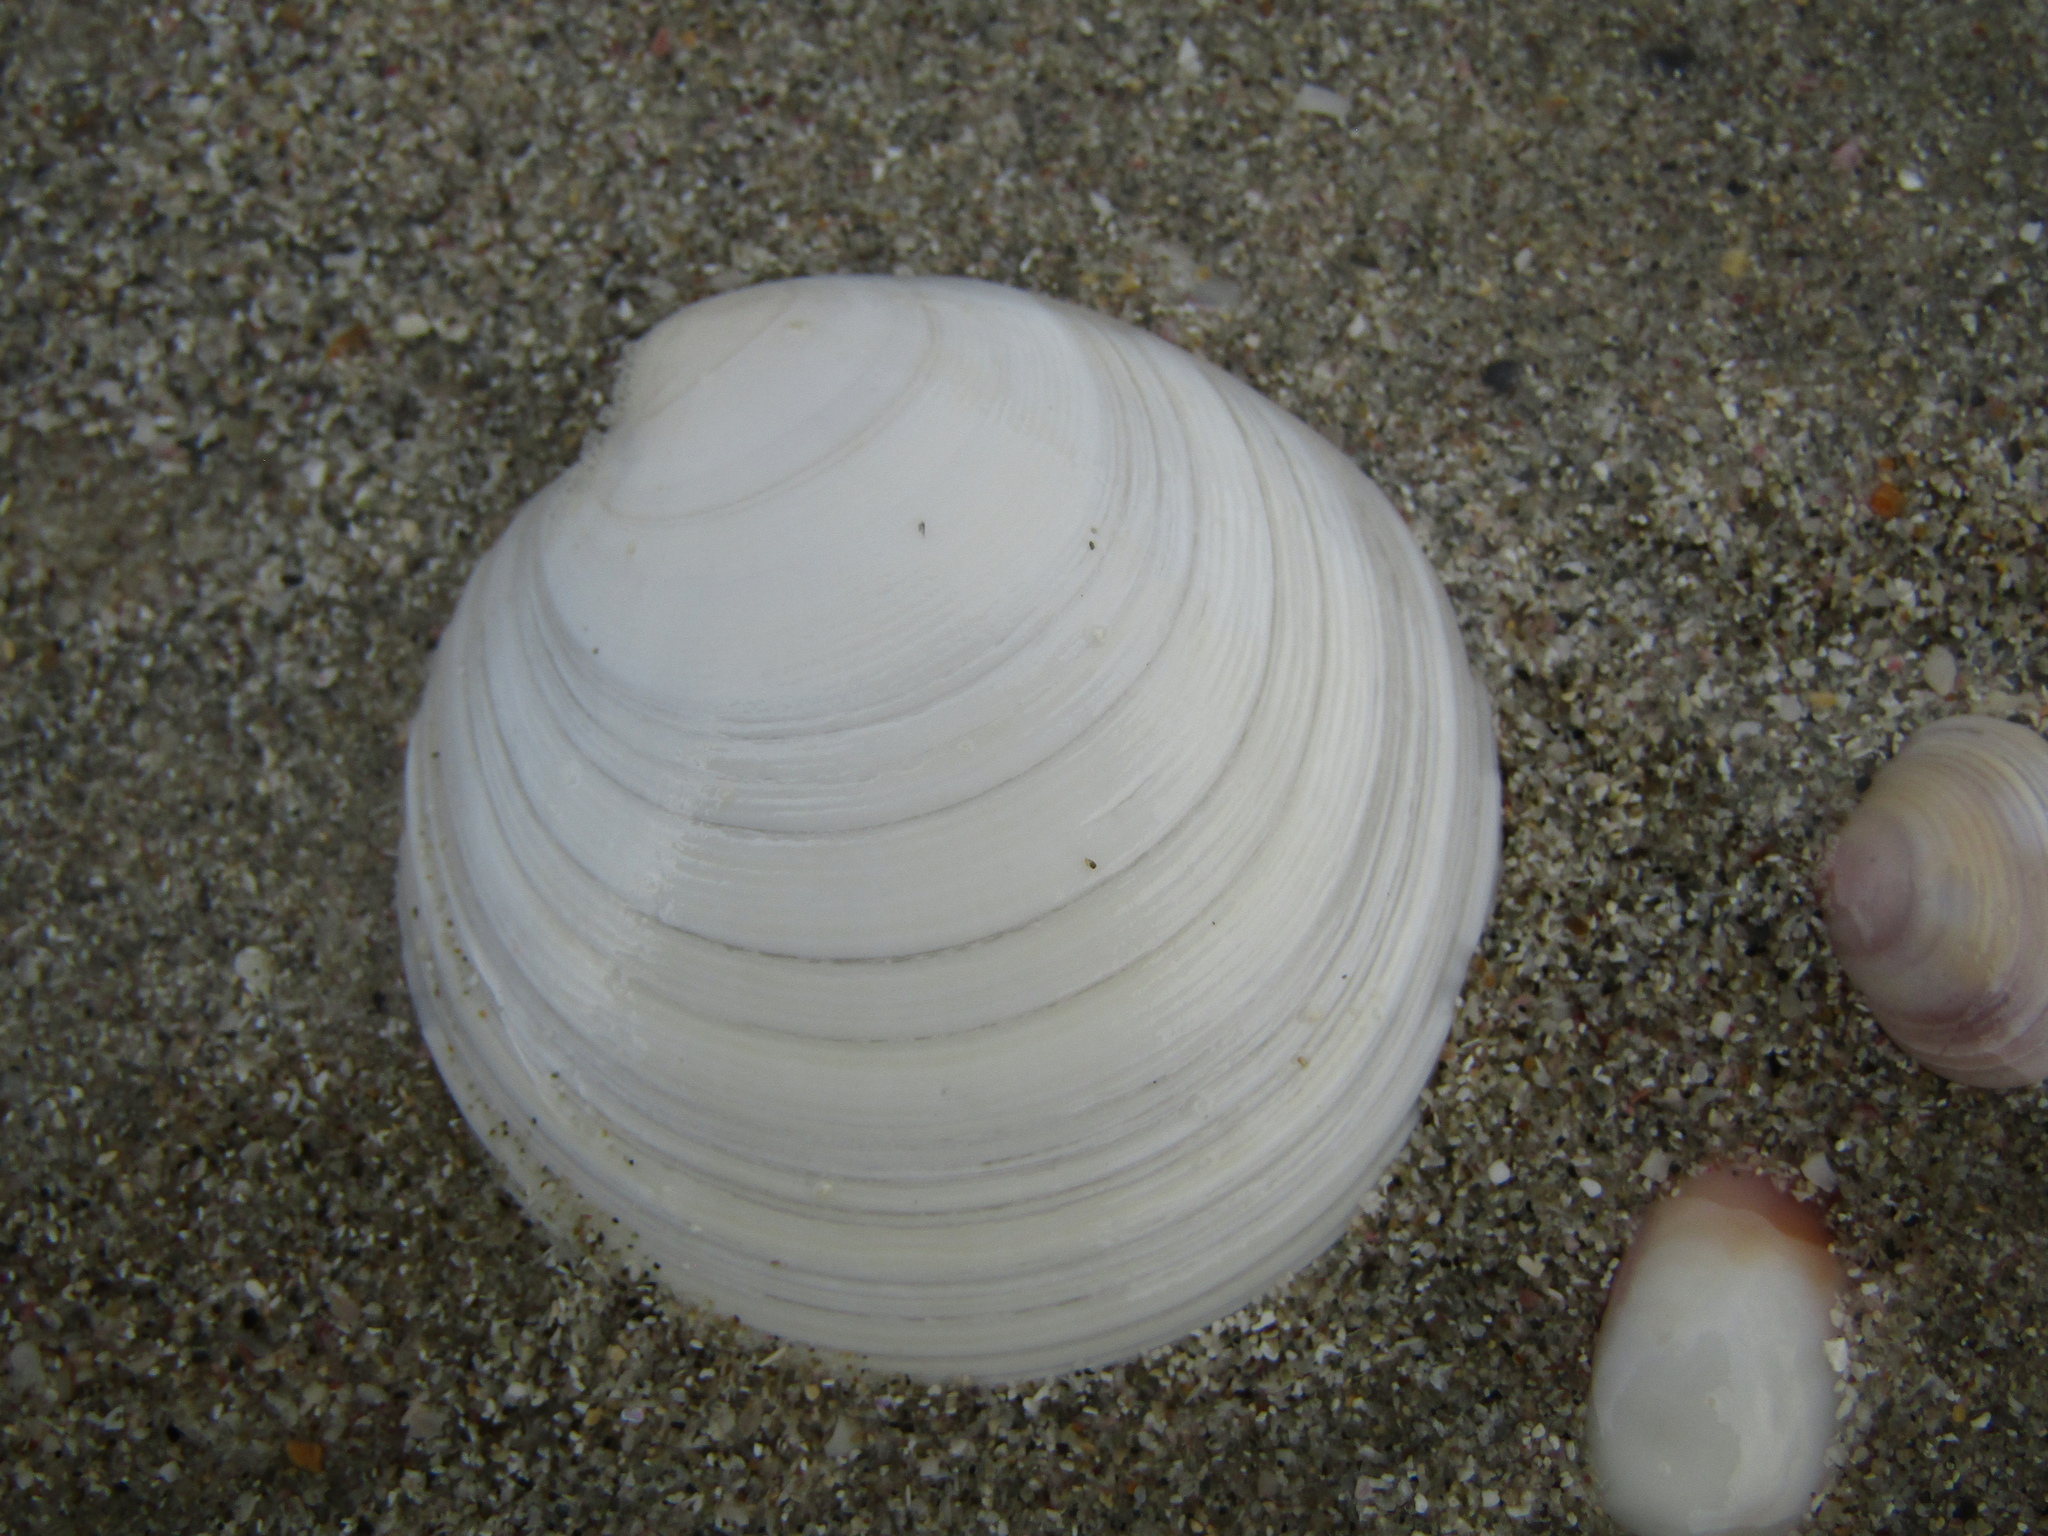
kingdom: Animalia
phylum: Mollusca
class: Bivalvia
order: Venerida
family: Veneridae
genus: Dosinia
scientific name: Dosinia maoriana
